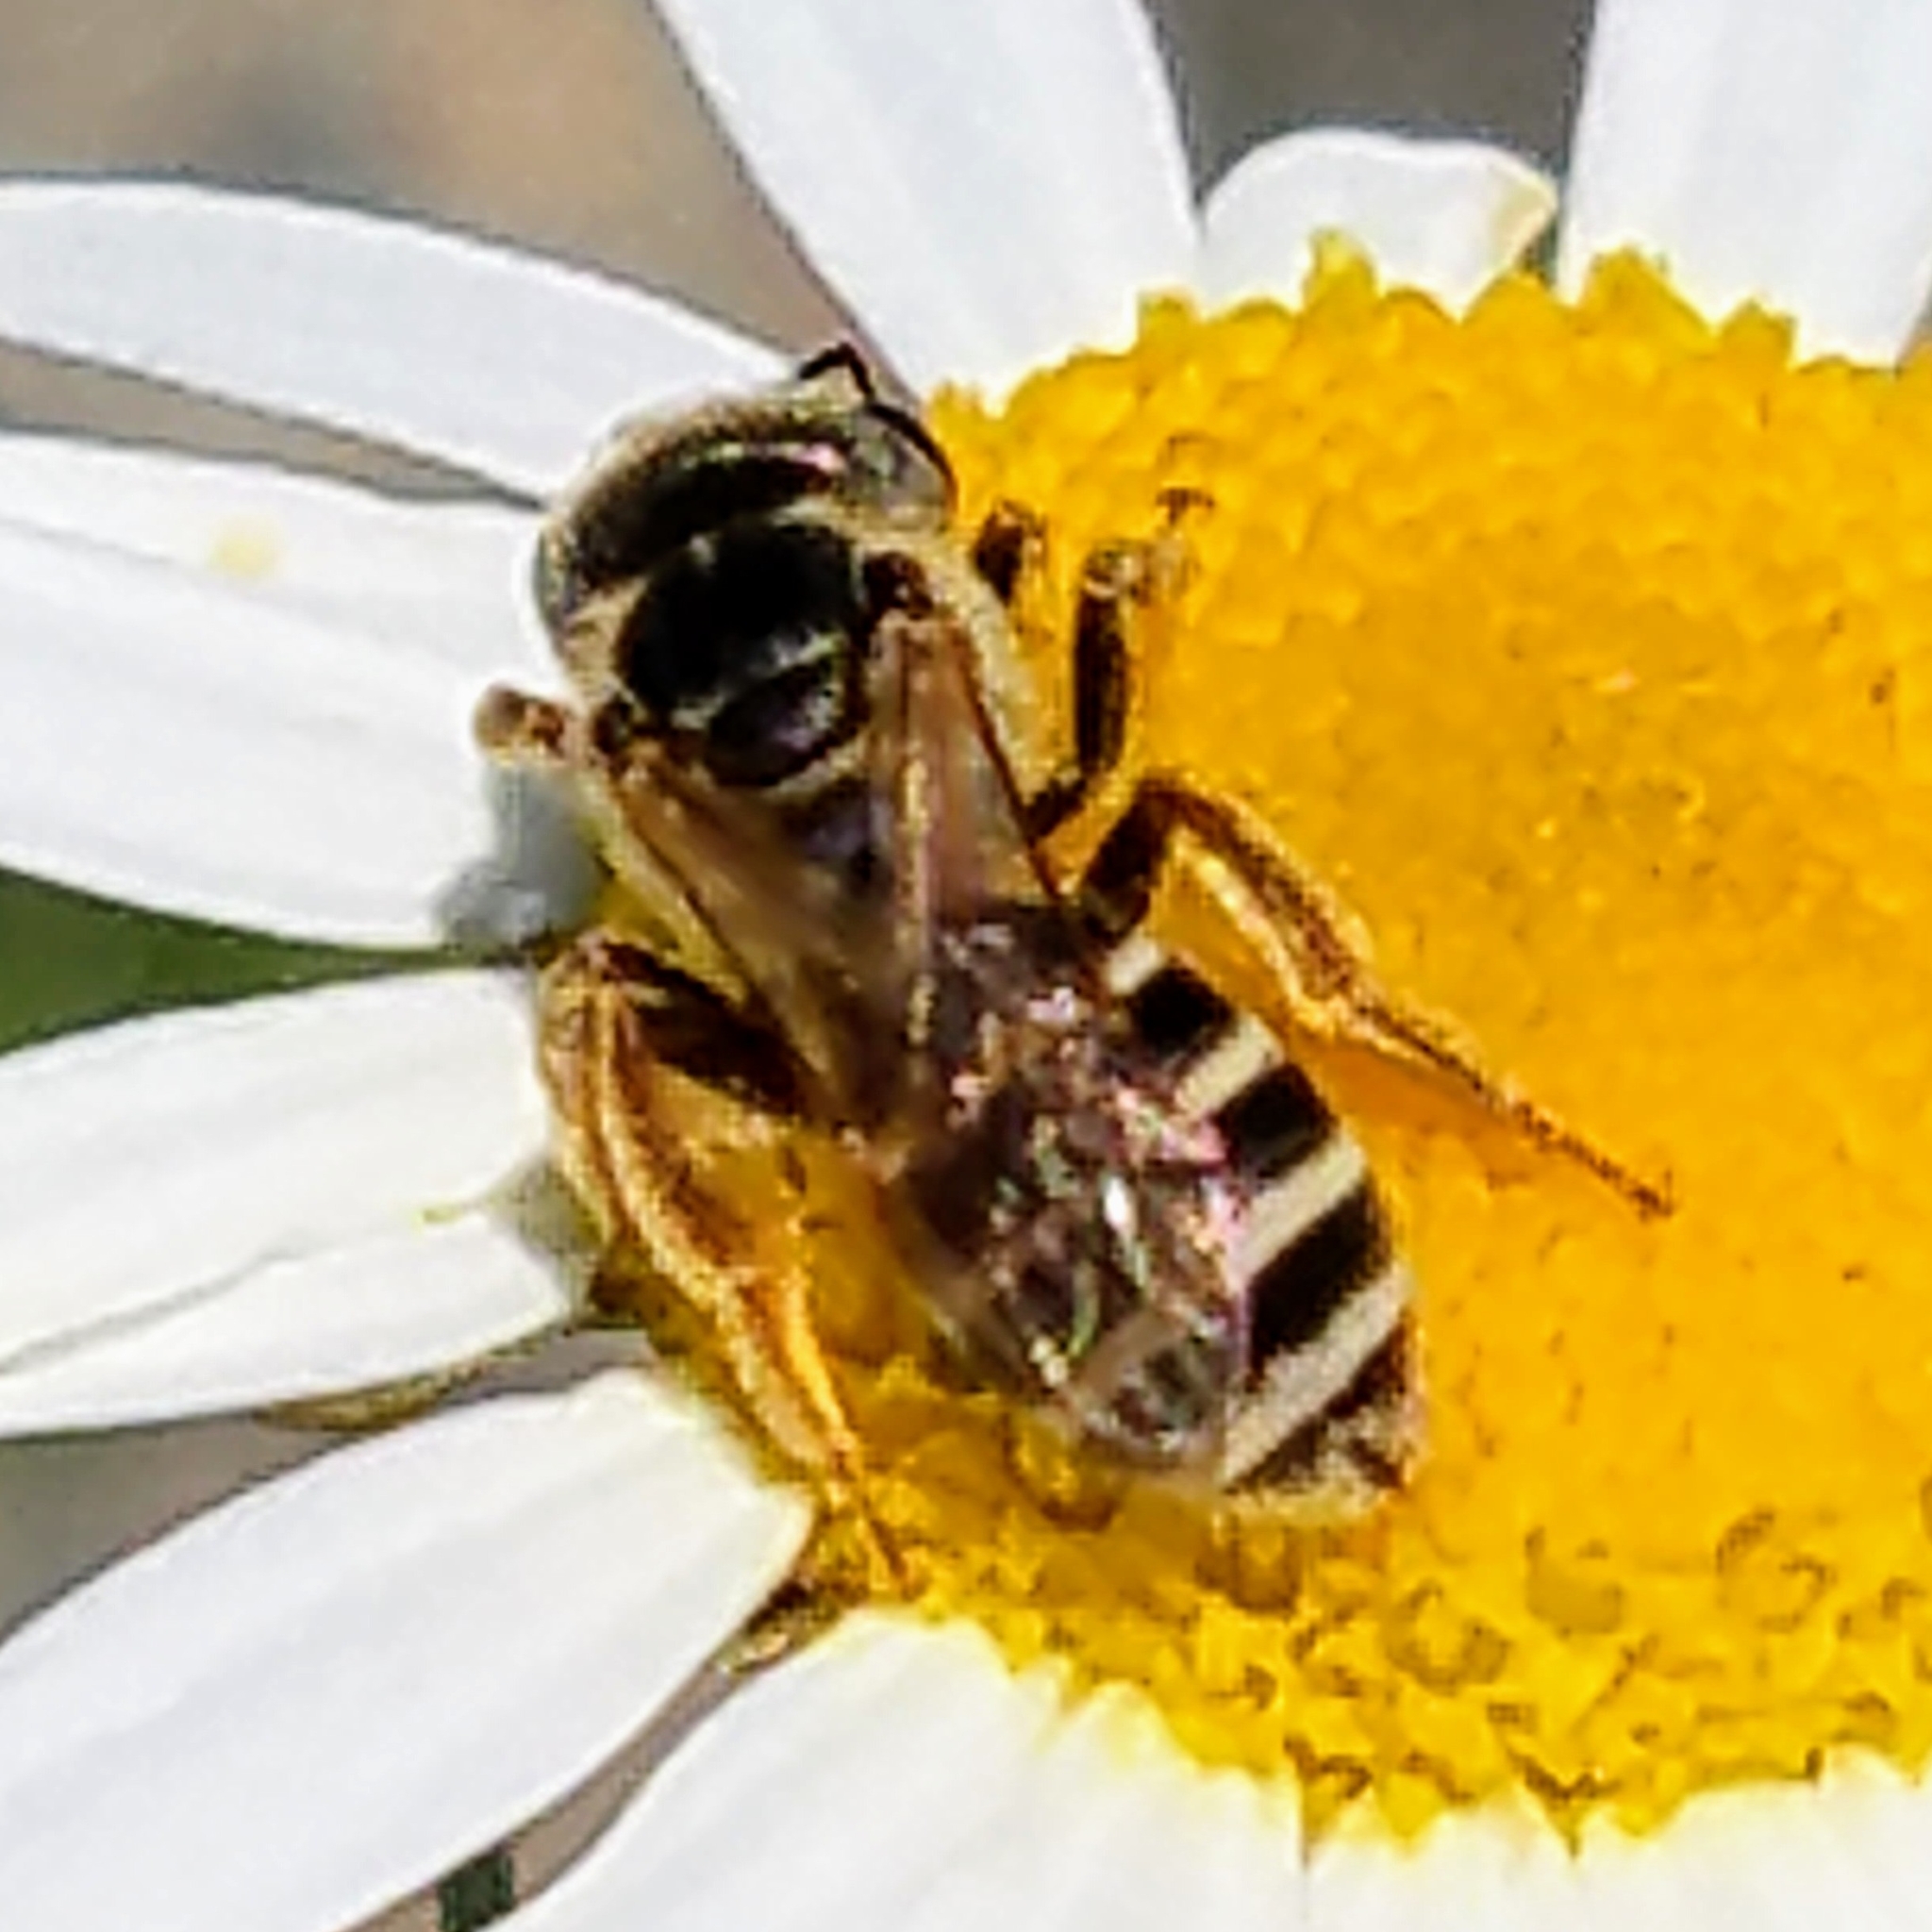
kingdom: Animalia
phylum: Arthropoda
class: Insecta
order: Hymenoptera
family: Halictidae
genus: Halictus
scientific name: Halictus ligatus
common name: Ligated furrow bee
